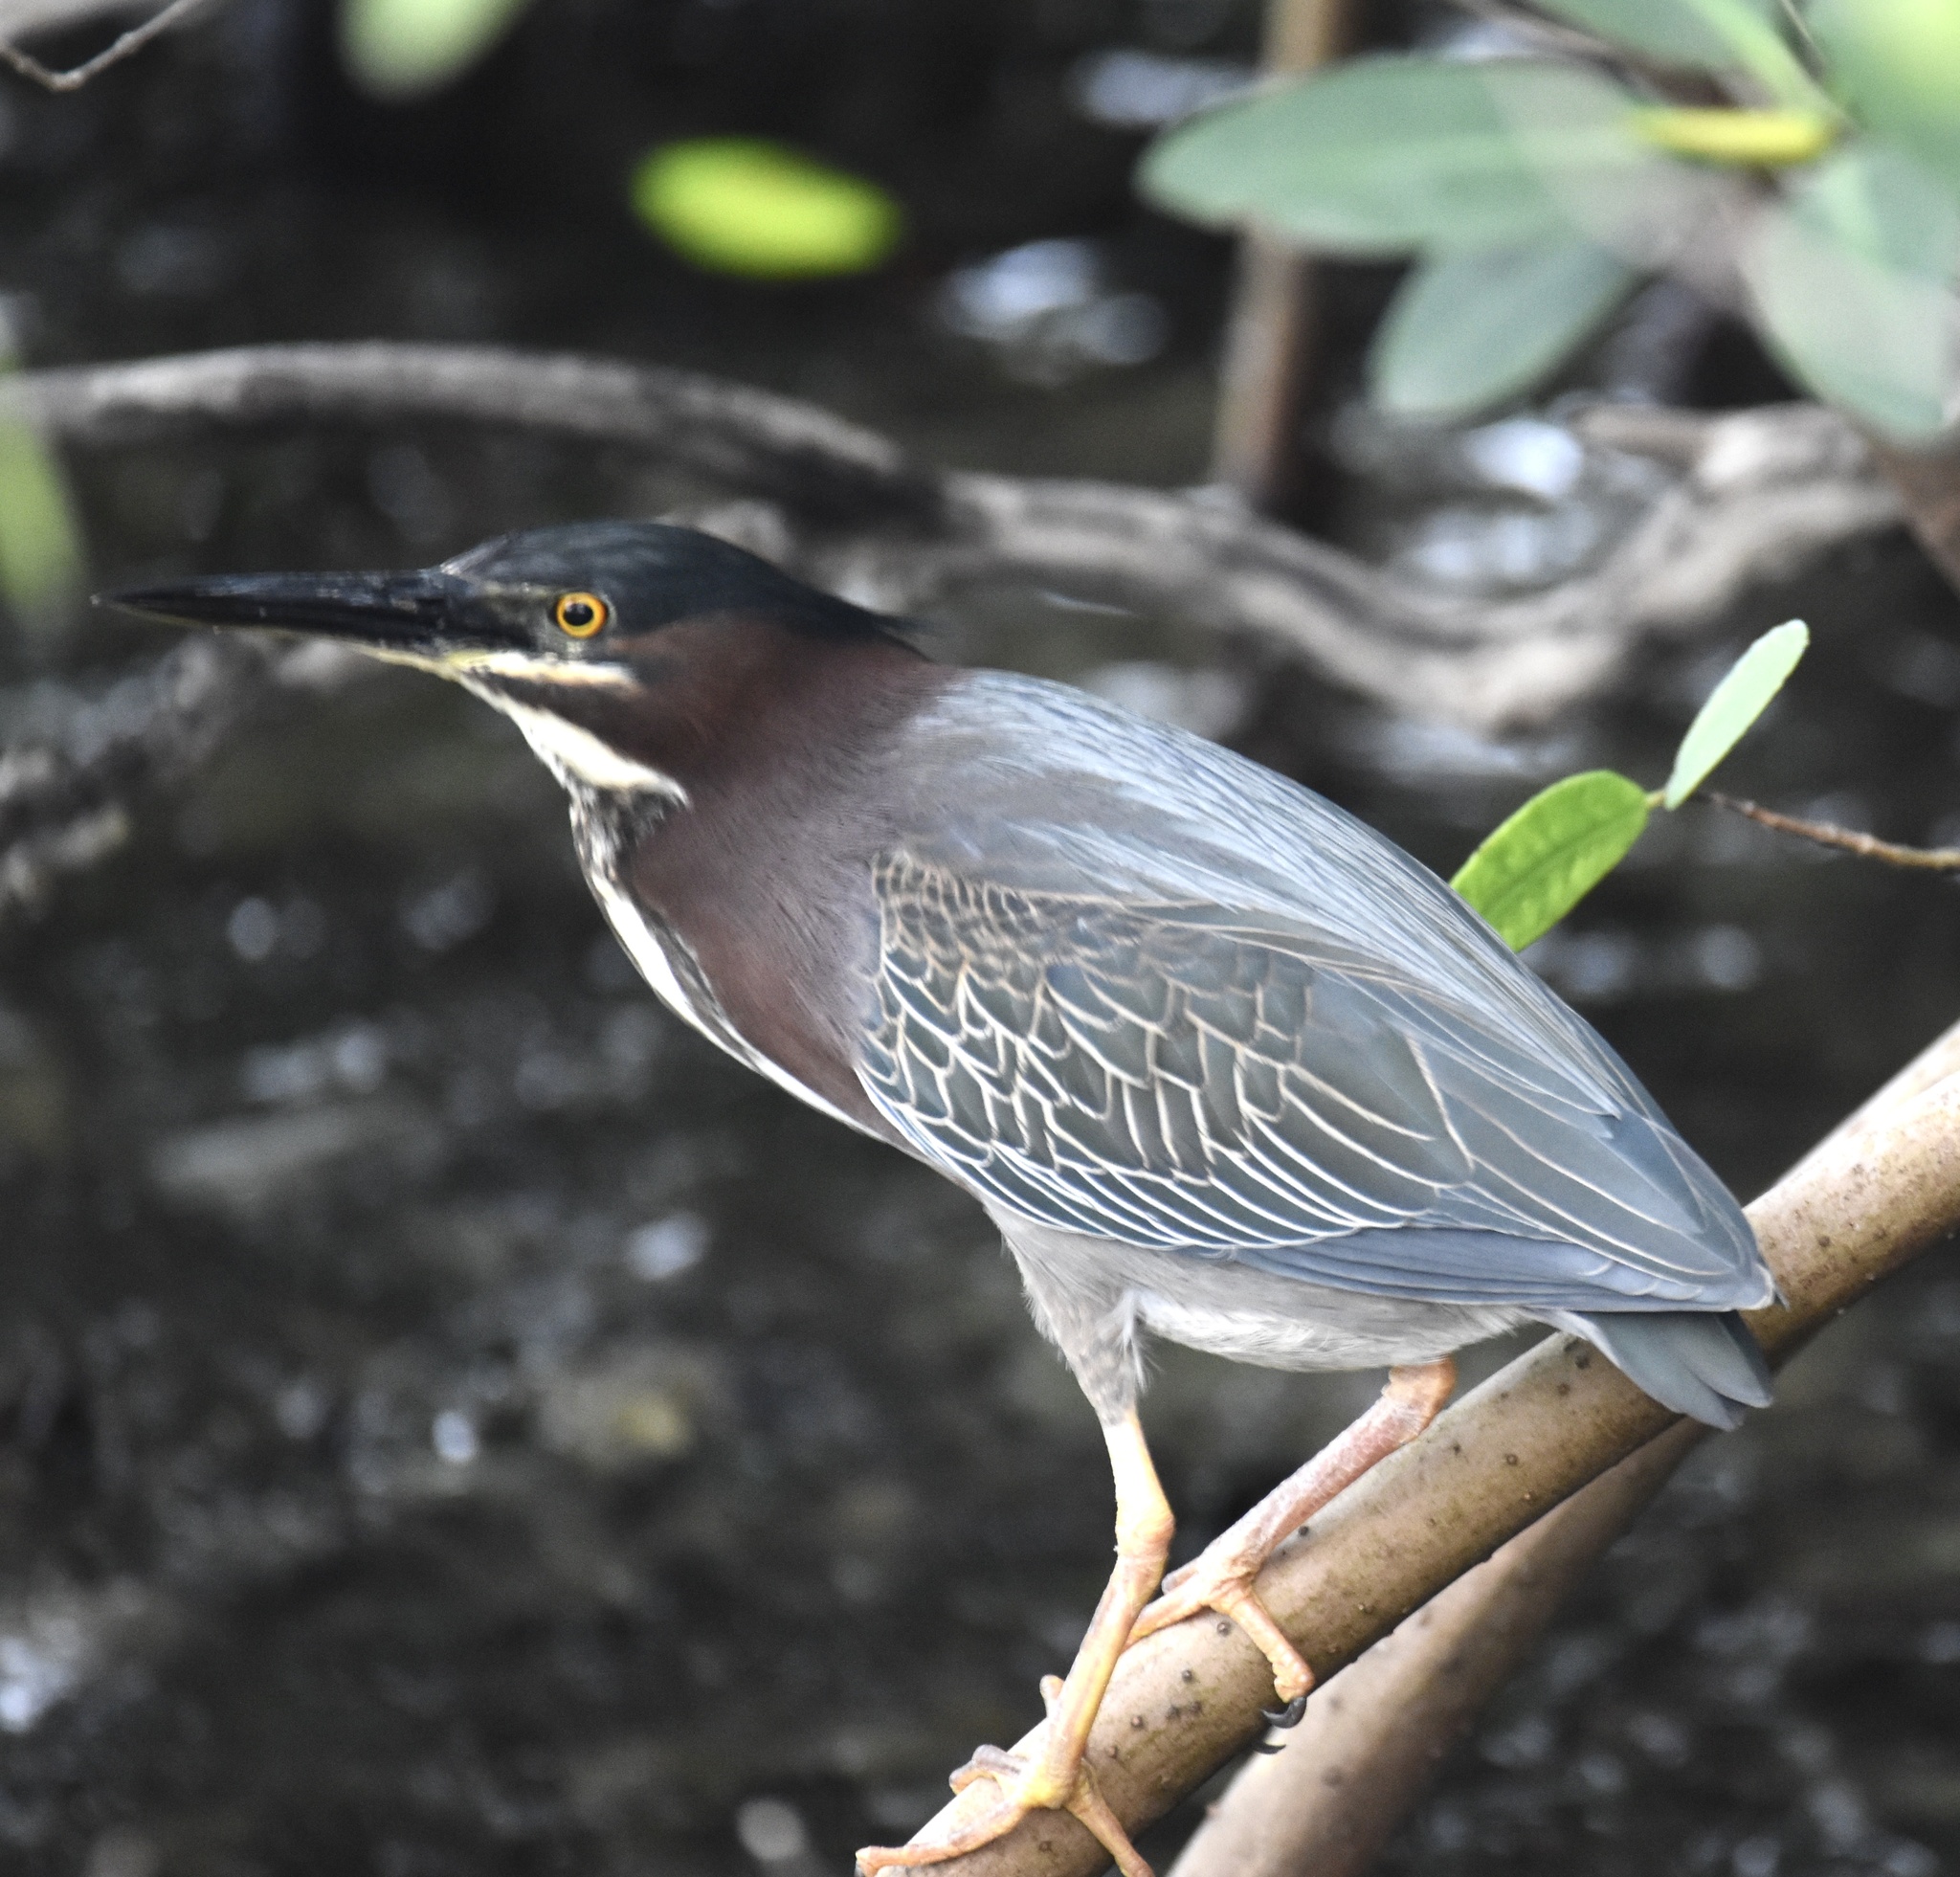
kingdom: Animalia
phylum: Chordata
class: Aves
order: Pelecaniformes
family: Ardeidae
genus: Butorides
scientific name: Butorides virescens
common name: Green heron
